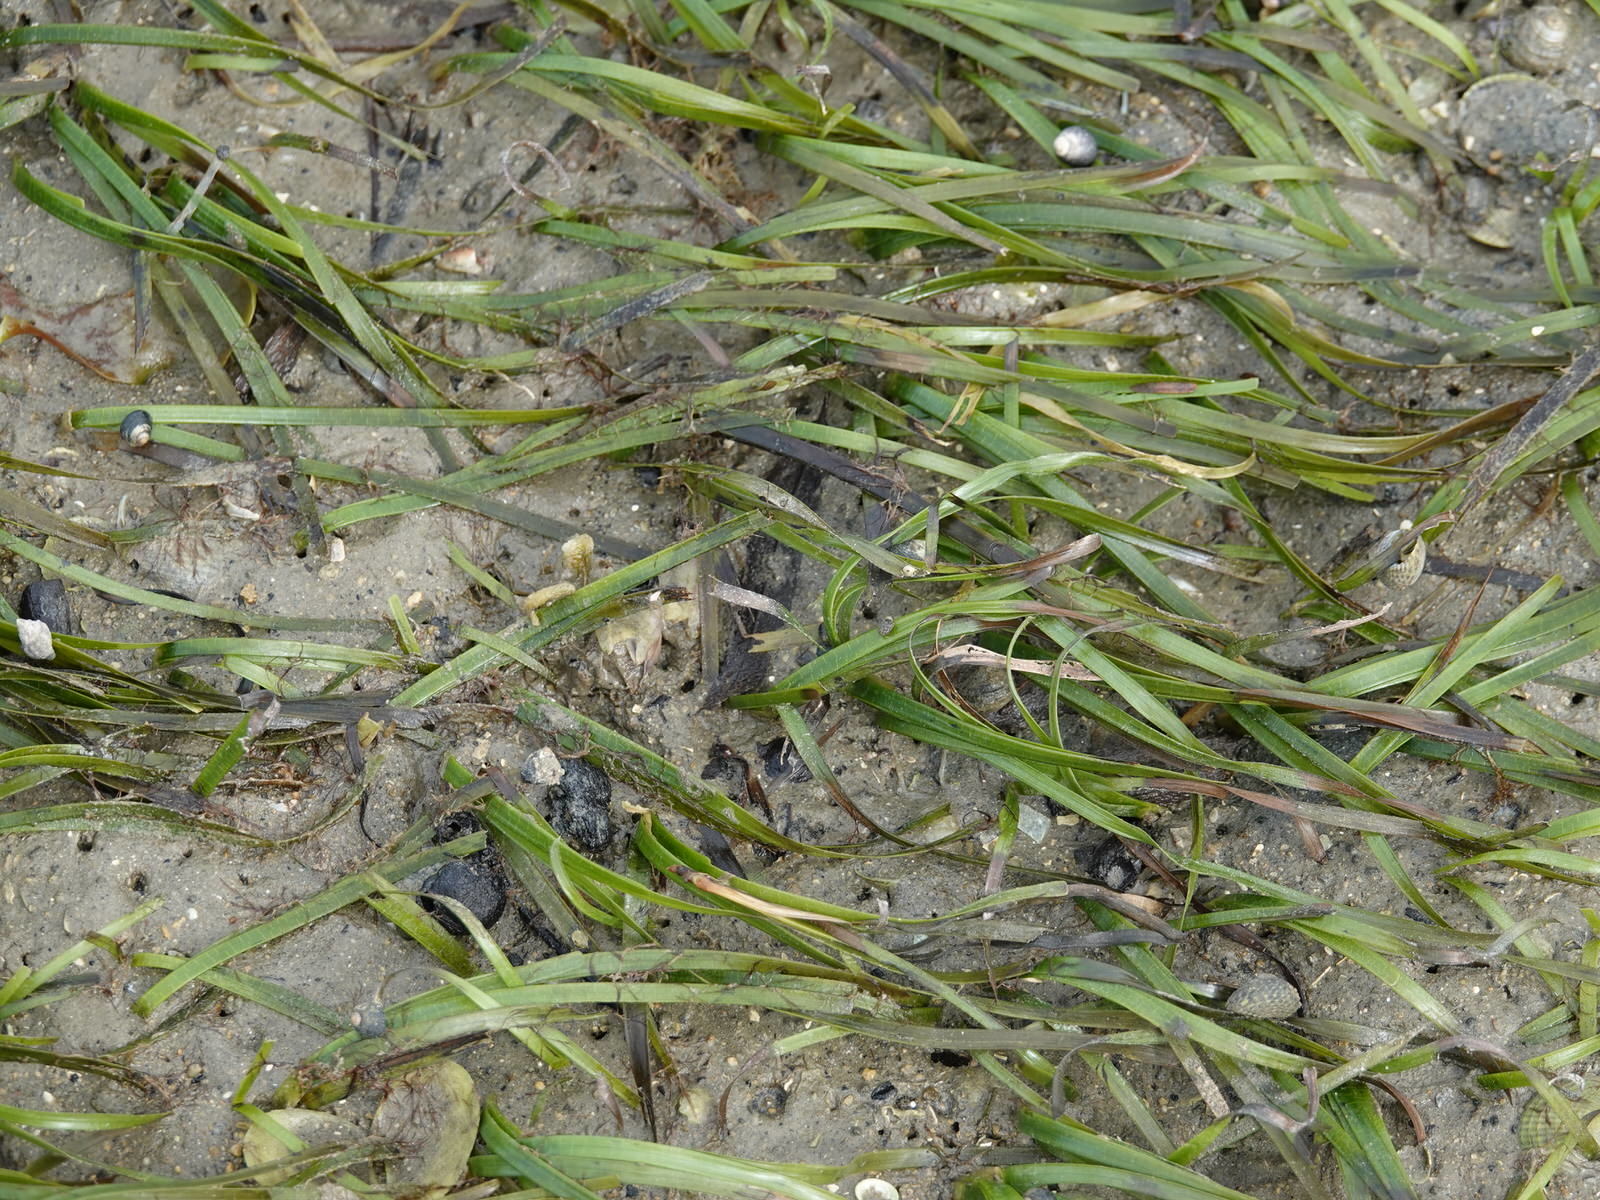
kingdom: Plantae
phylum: Tracheophyta
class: Liliopsida
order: Alismatales
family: Zosteraceae
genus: Zostera
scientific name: Zostera novazelandica
